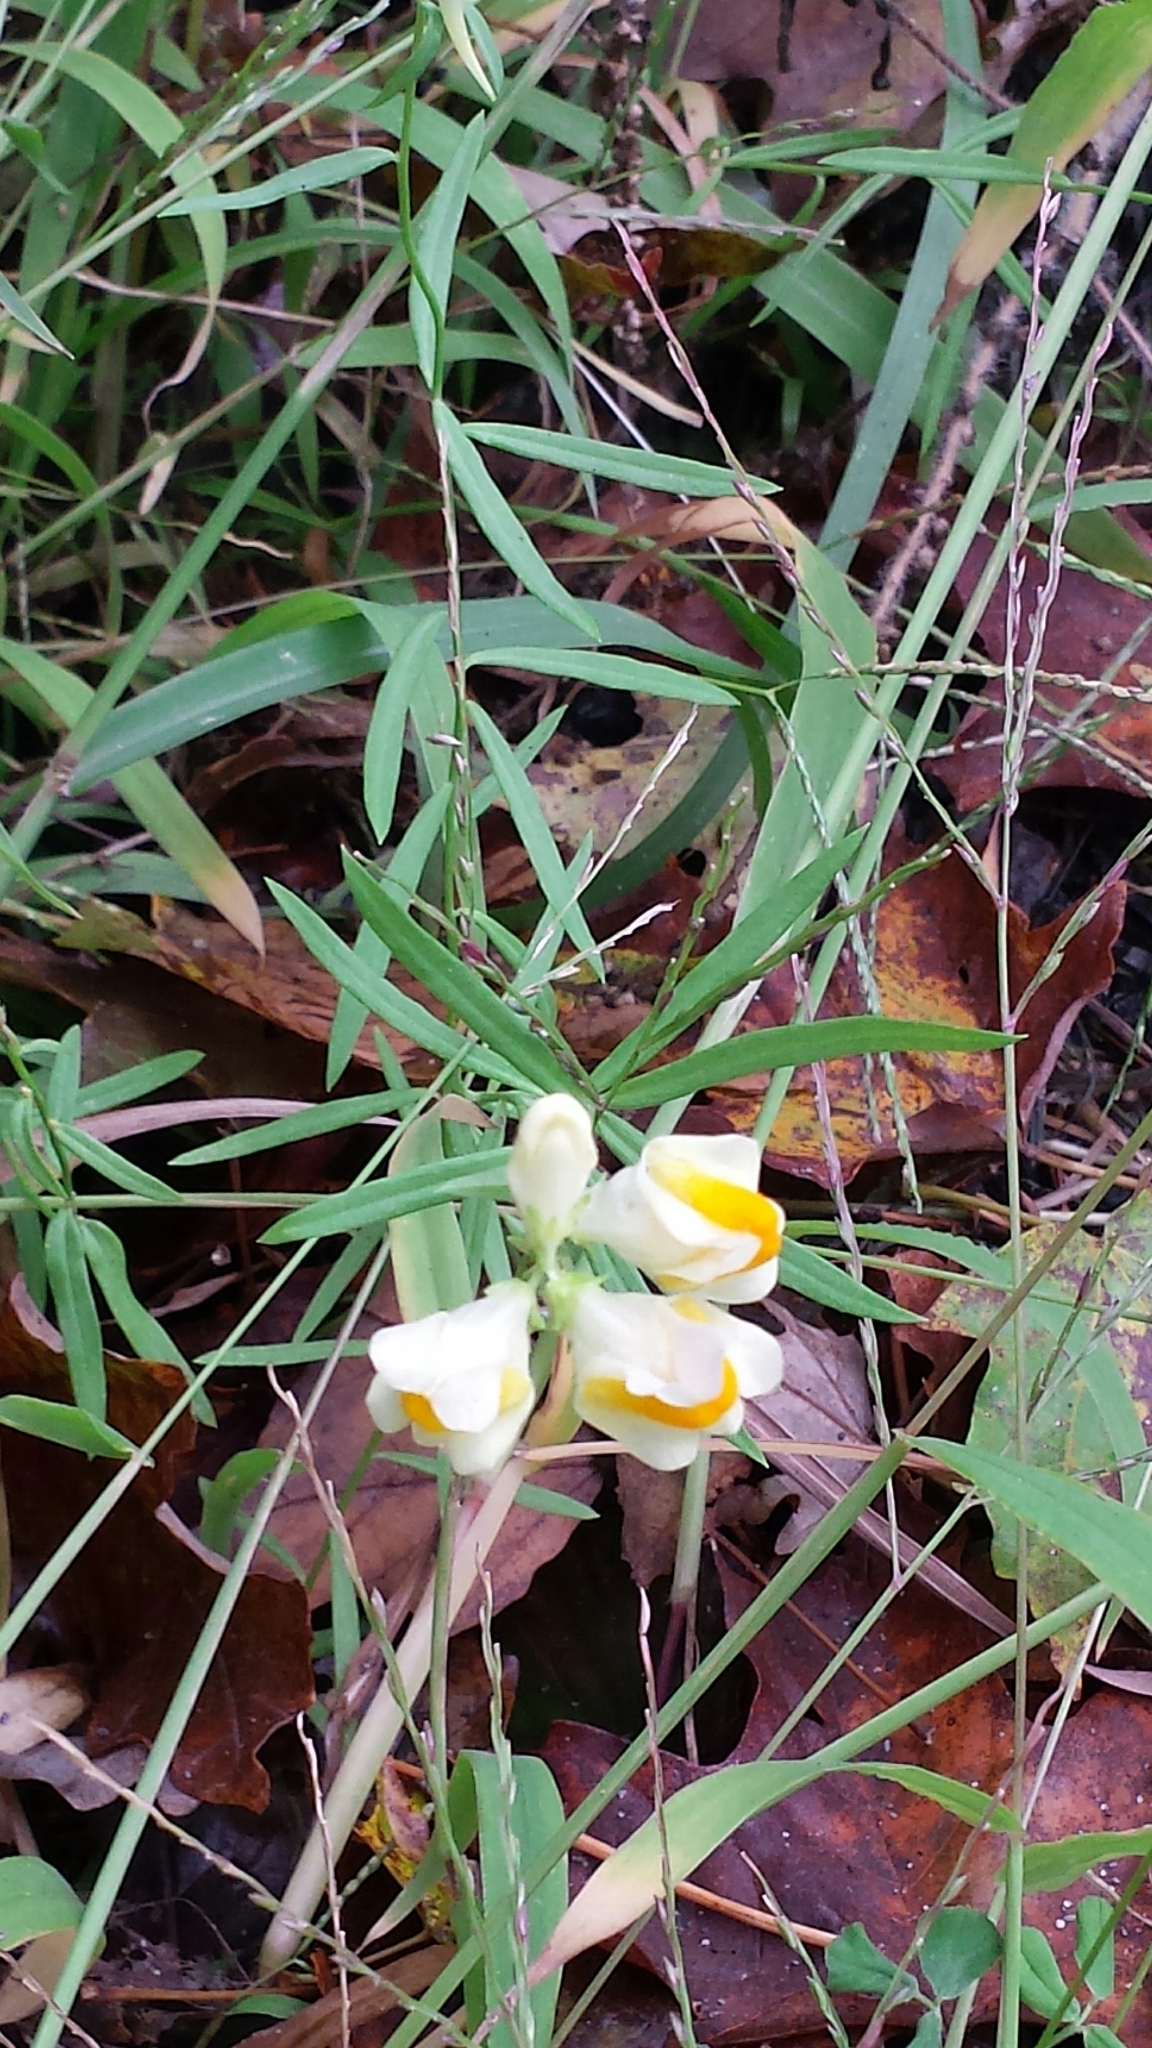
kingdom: Plantae
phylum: Tracheophyta
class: Magnoliopsida
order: Lamiales
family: Plantaginaceae
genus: Linaria
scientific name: Linaria vulgaris
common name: Butter and eggs
